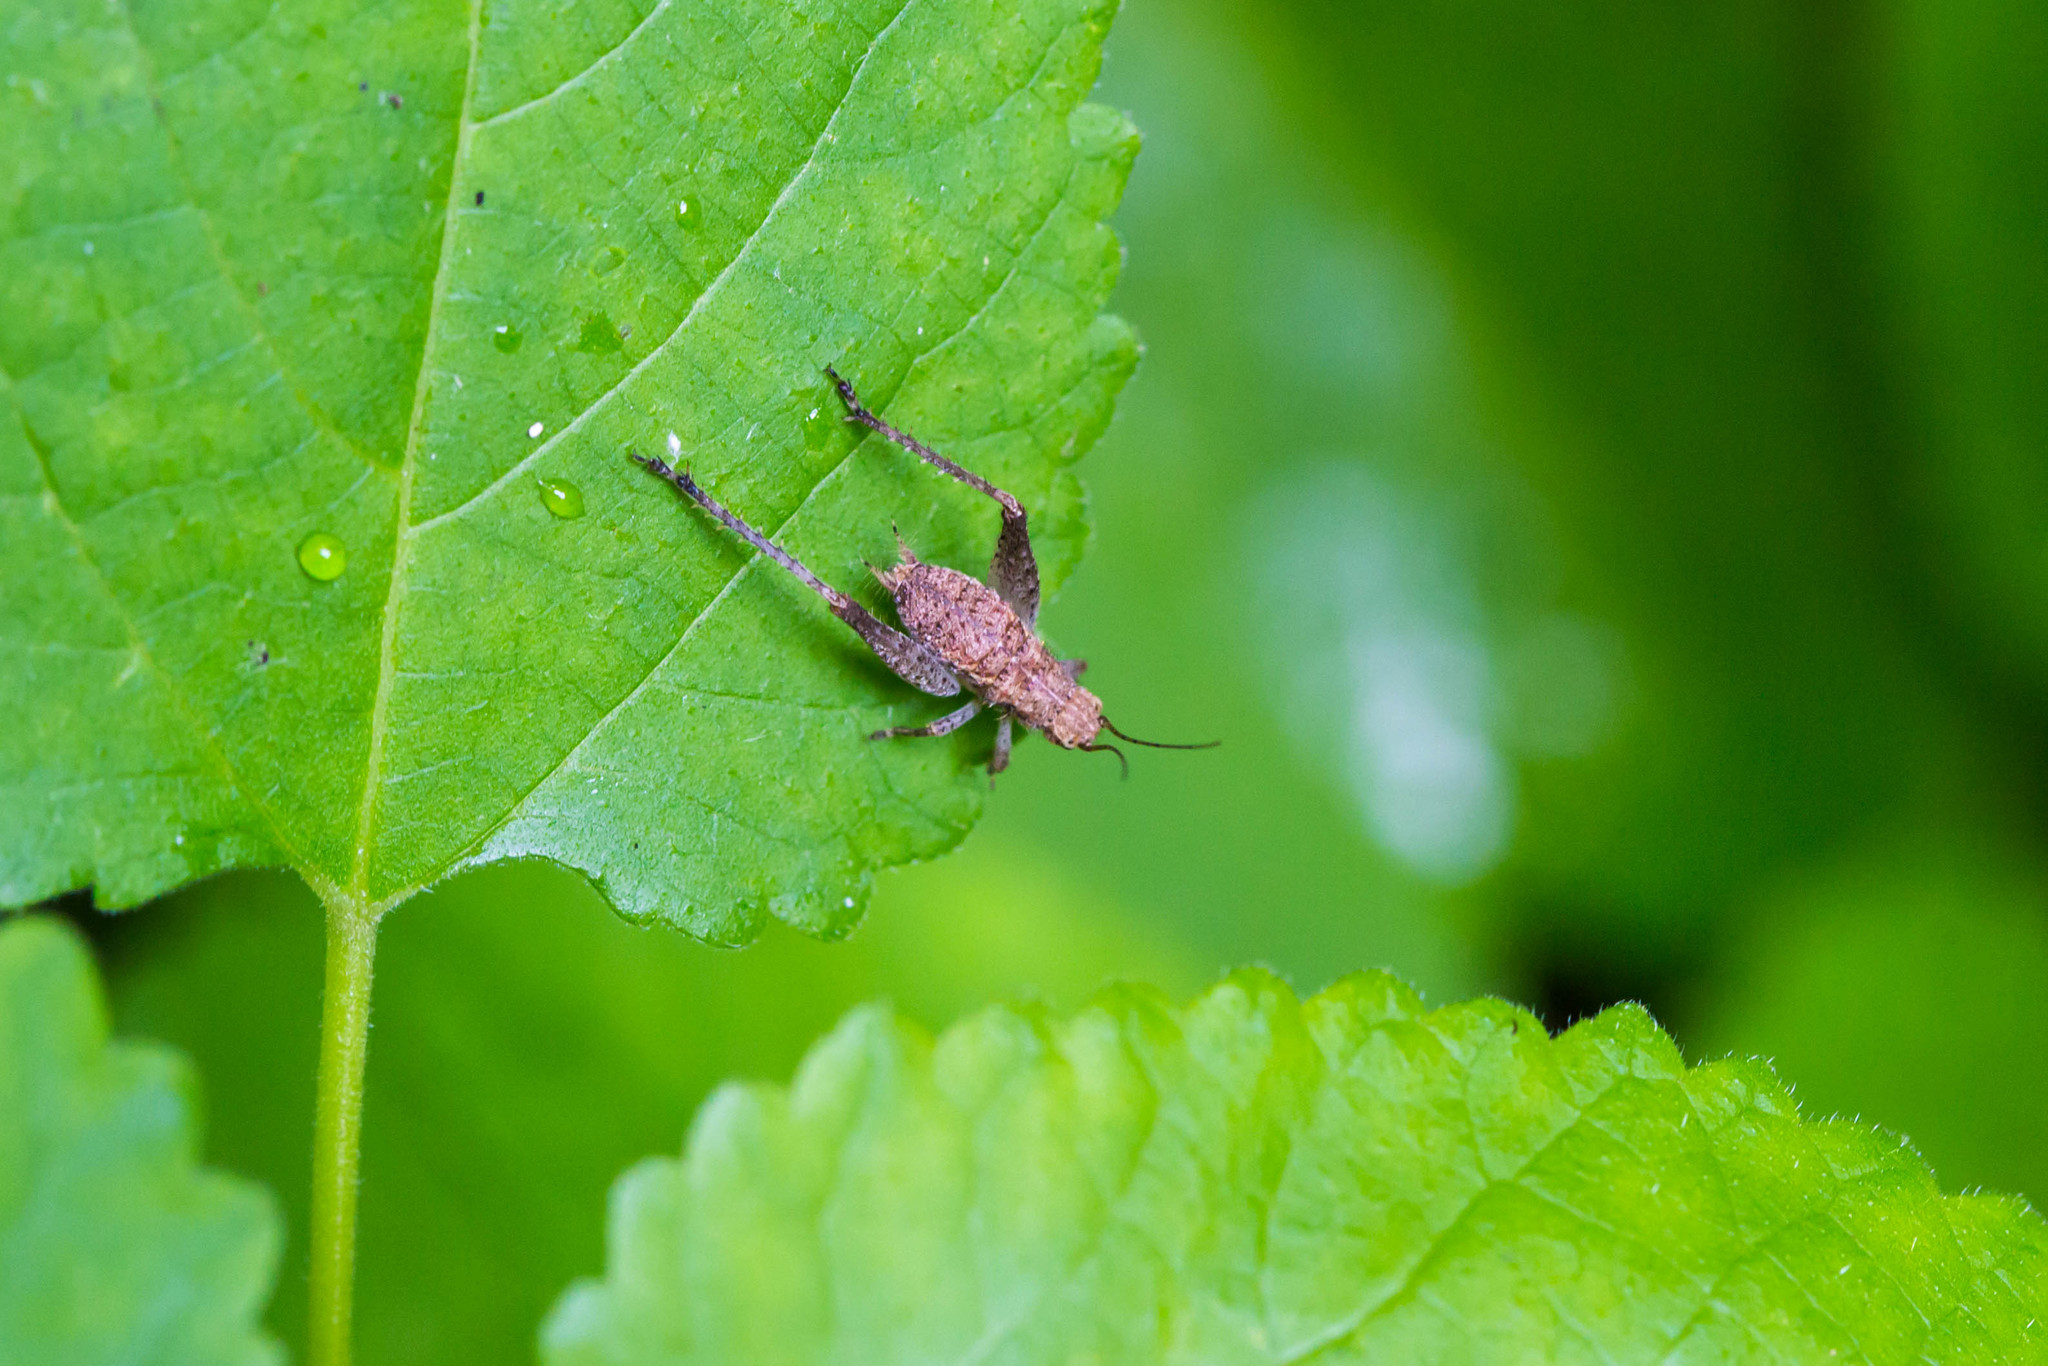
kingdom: Animalia
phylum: Arthropoda
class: Insecta
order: Orthoptera
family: Gryllidae
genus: Hapithus
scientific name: Hapithus agitator
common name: Restless bush cricket
